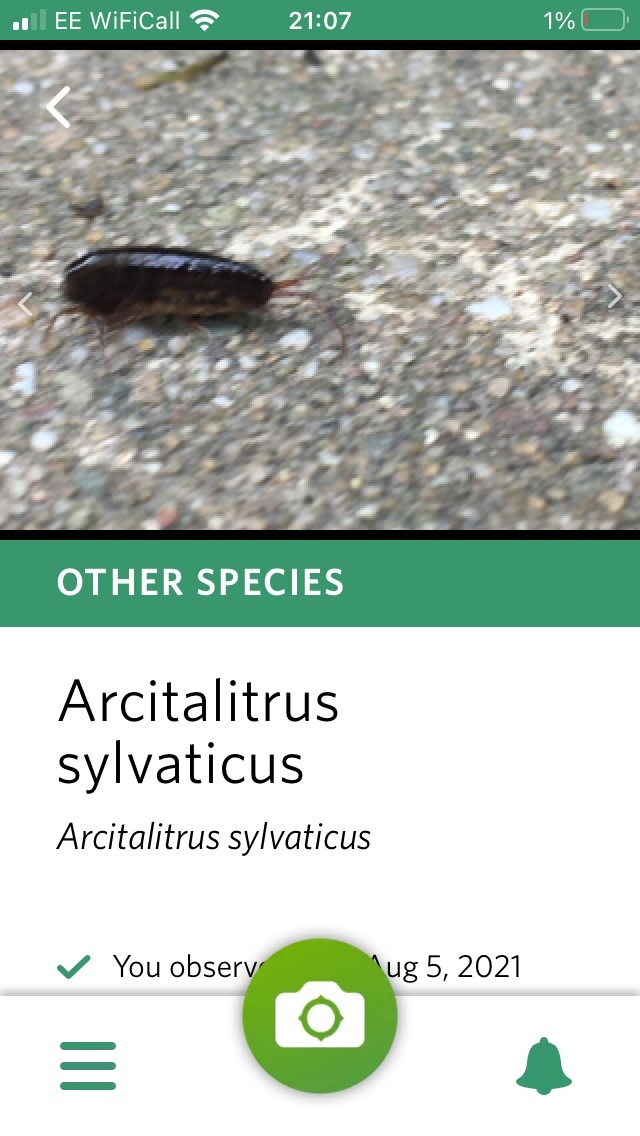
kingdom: Animalia
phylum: Arthropoda
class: Malacostraca
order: Amphipoda
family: Arcitalitridae
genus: Arcitalitrus
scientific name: Arcitalitrus dorrieni
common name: Landhopper
